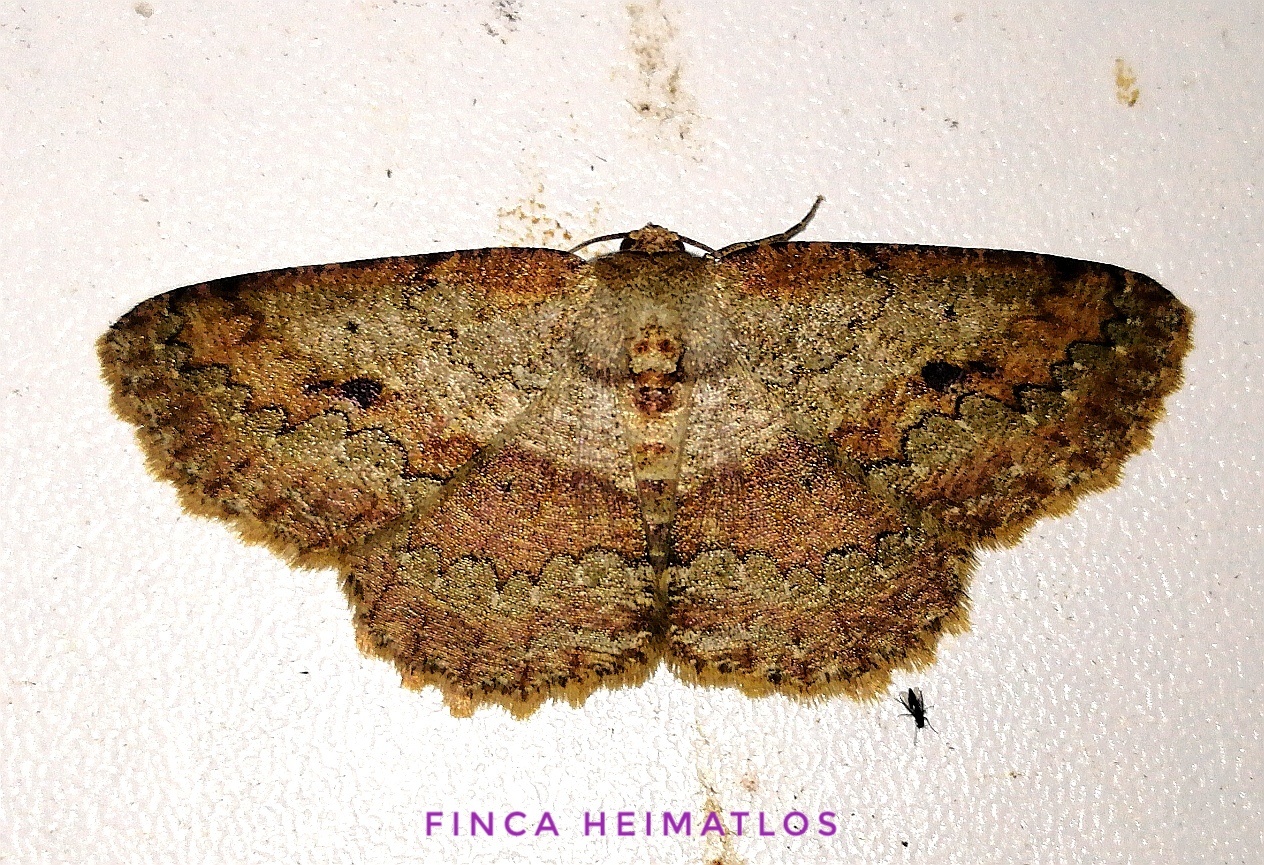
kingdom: Animalia
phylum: Arthropoda
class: Insecta
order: Lepidoptera
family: Geometridae
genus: Sabulodes
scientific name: Sabulodes boarmidaria
